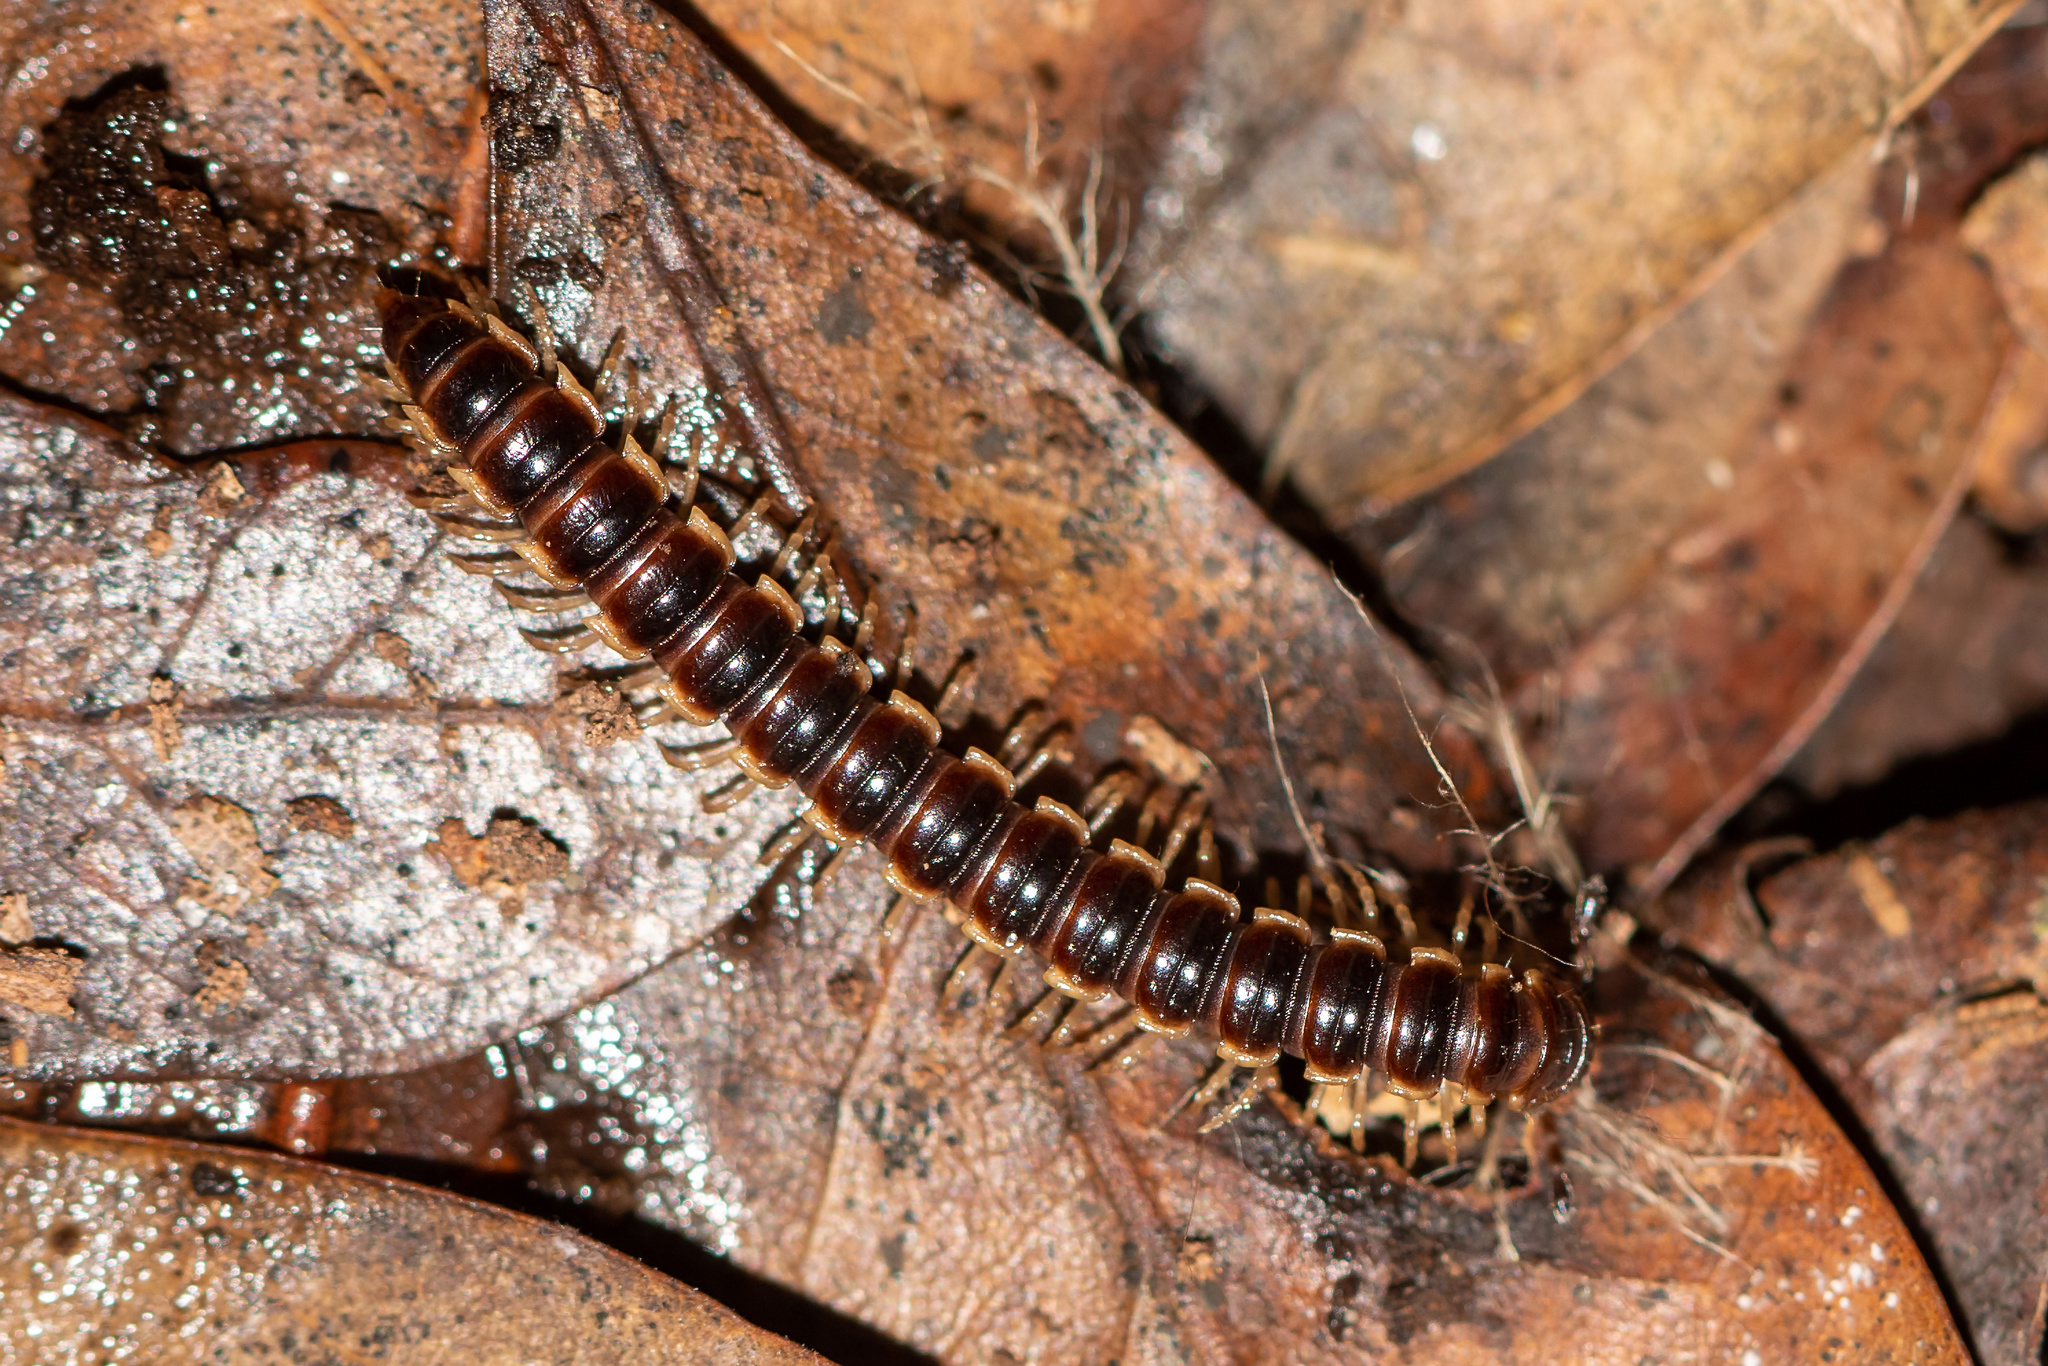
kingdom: Animalia
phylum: Arthropoda
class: Diplopoda
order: Polydesmida
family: Paradoxosomatidae
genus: Oxidus
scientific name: Oxidus gracilis
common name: Greenhouse millipede
